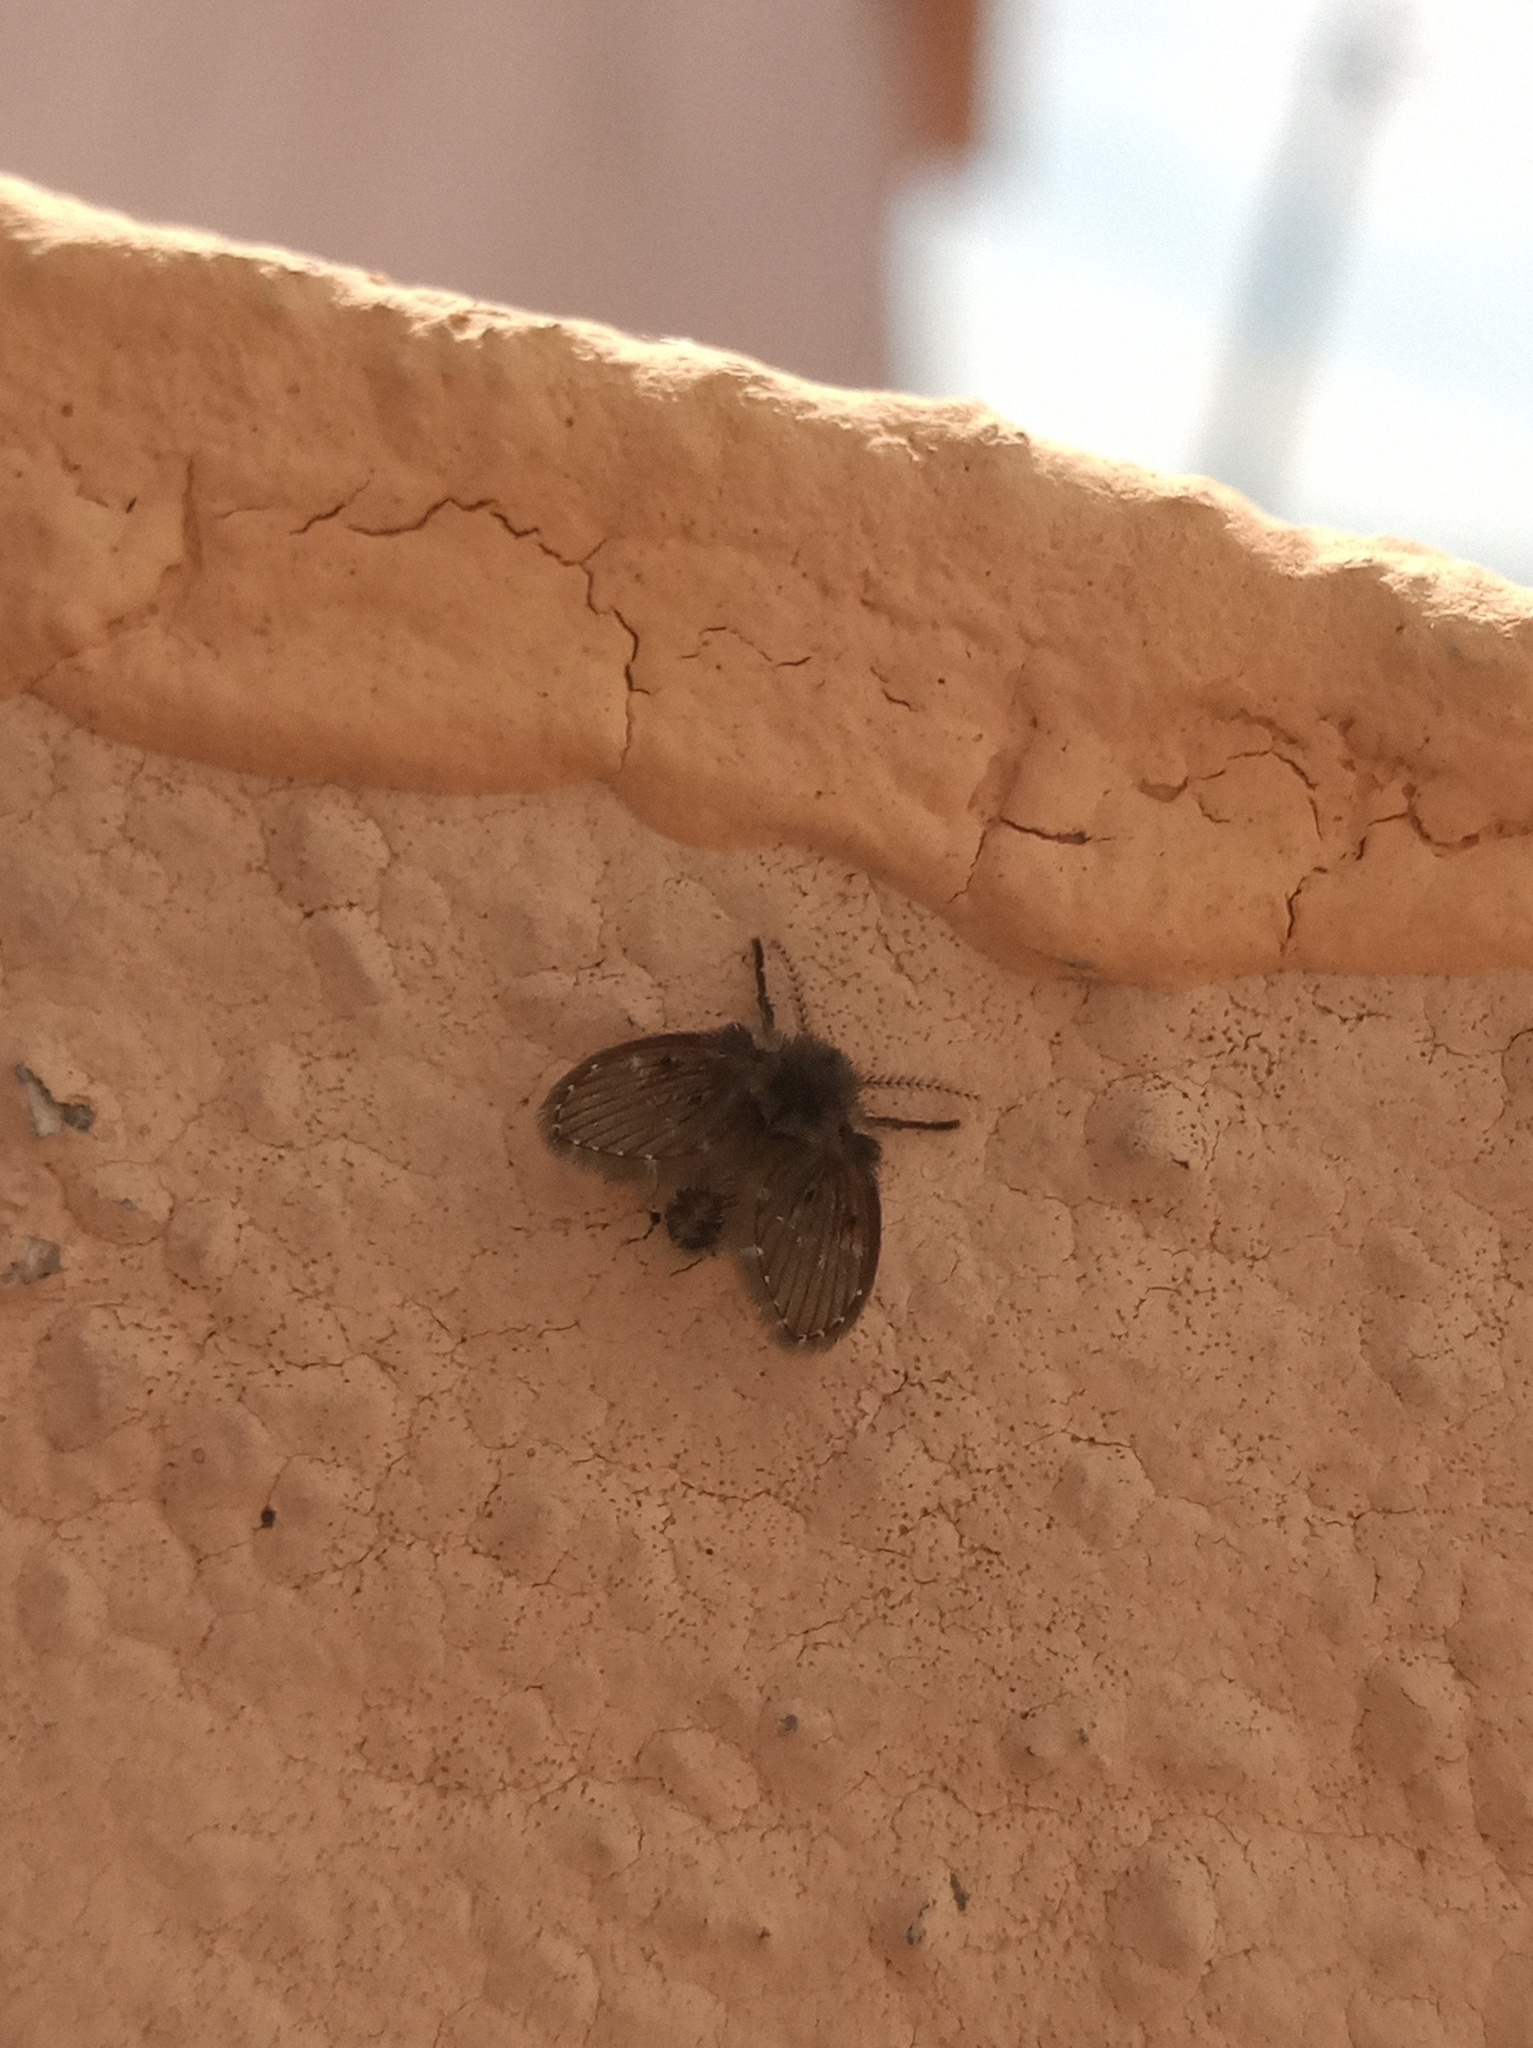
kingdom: Animalia
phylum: Arthropoda
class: Insecta
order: Diptera
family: Psychodidae
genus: Clogmia
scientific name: Clogmia albipunctatus
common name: White-spotted moth fly
